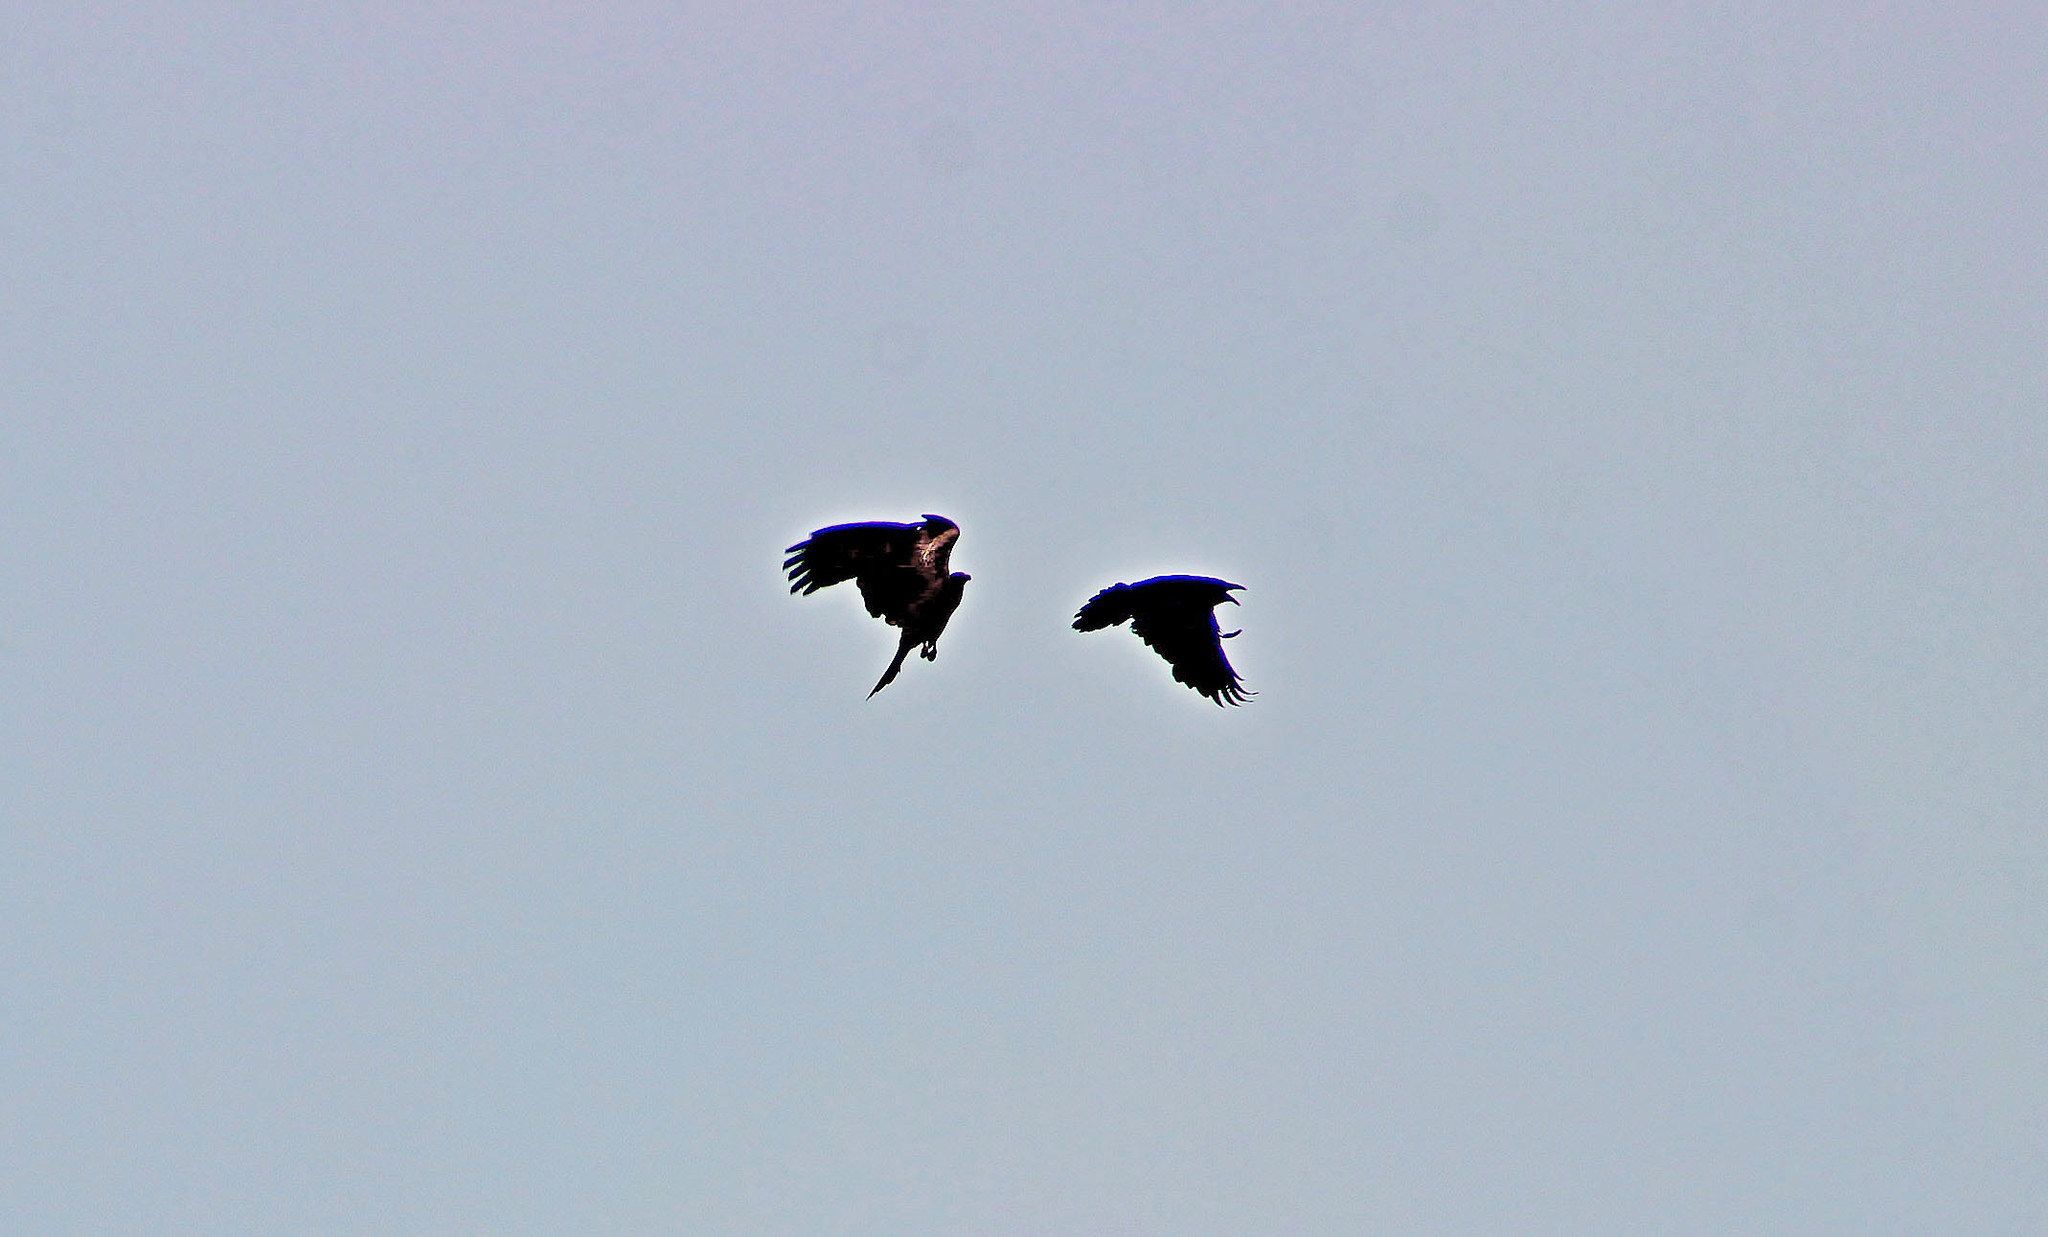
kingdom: Animalia
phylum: Chordata
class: Aves
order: Accipitriformes
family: Accipitridae
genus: Milvus
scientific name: Milvus migrans
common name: Black kite
